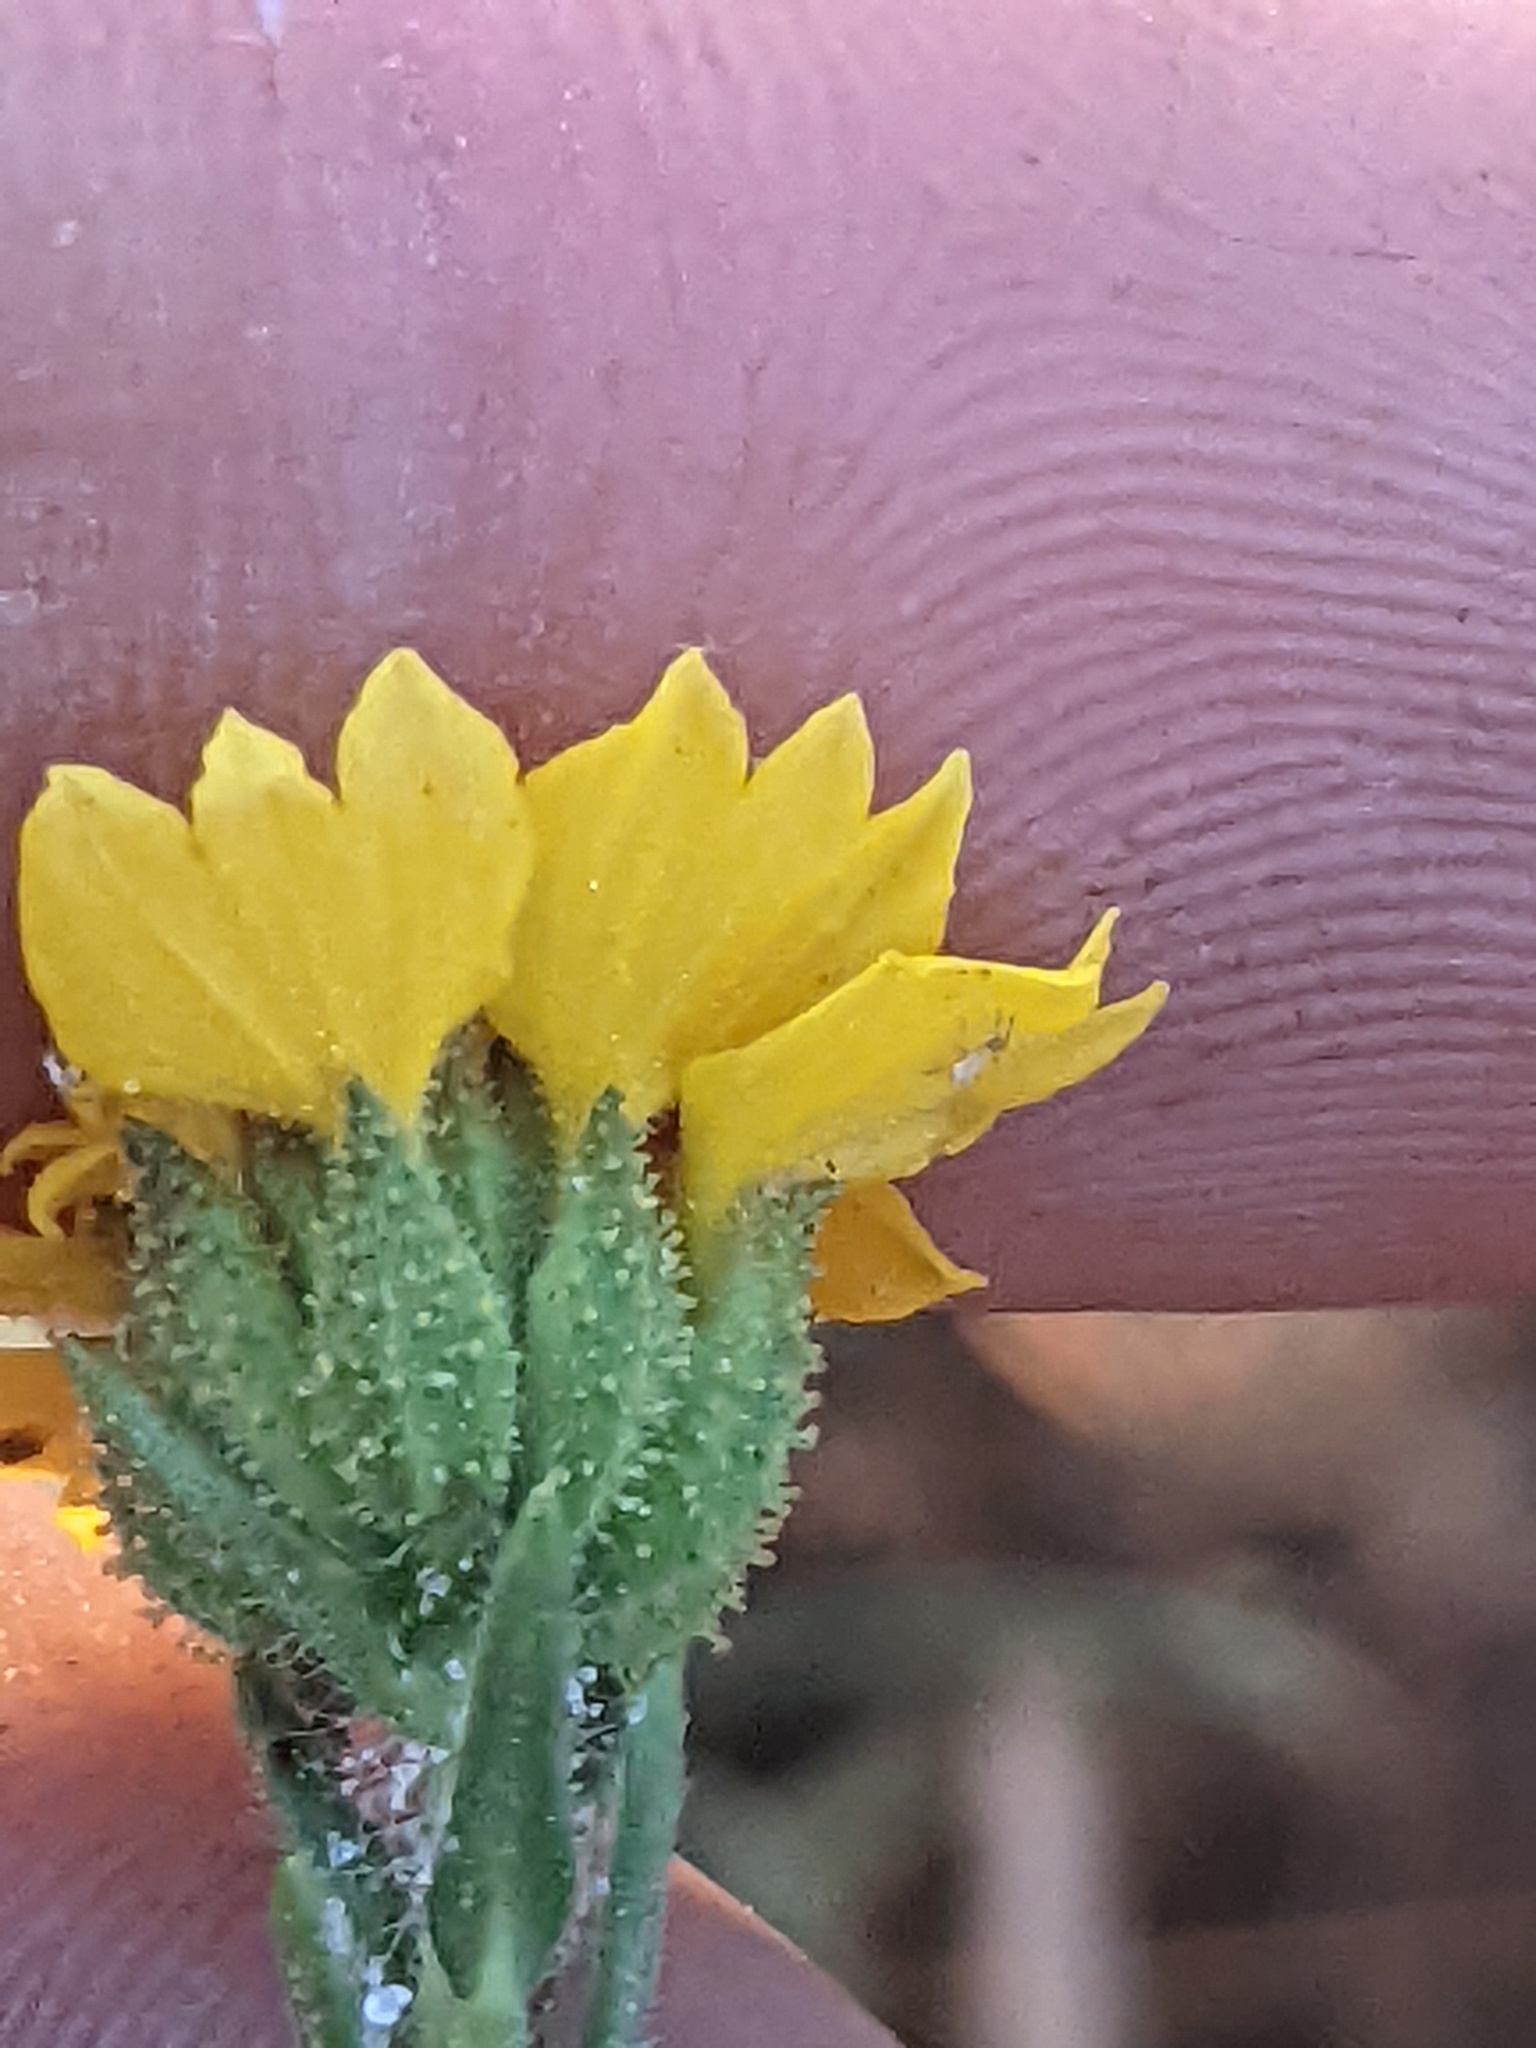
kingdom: Plantae
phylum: Tracheophyta
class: Magnoliopsida
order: Asterales
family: Asteraceae
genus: Holocarpha
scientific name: Holocarpha heermannii
